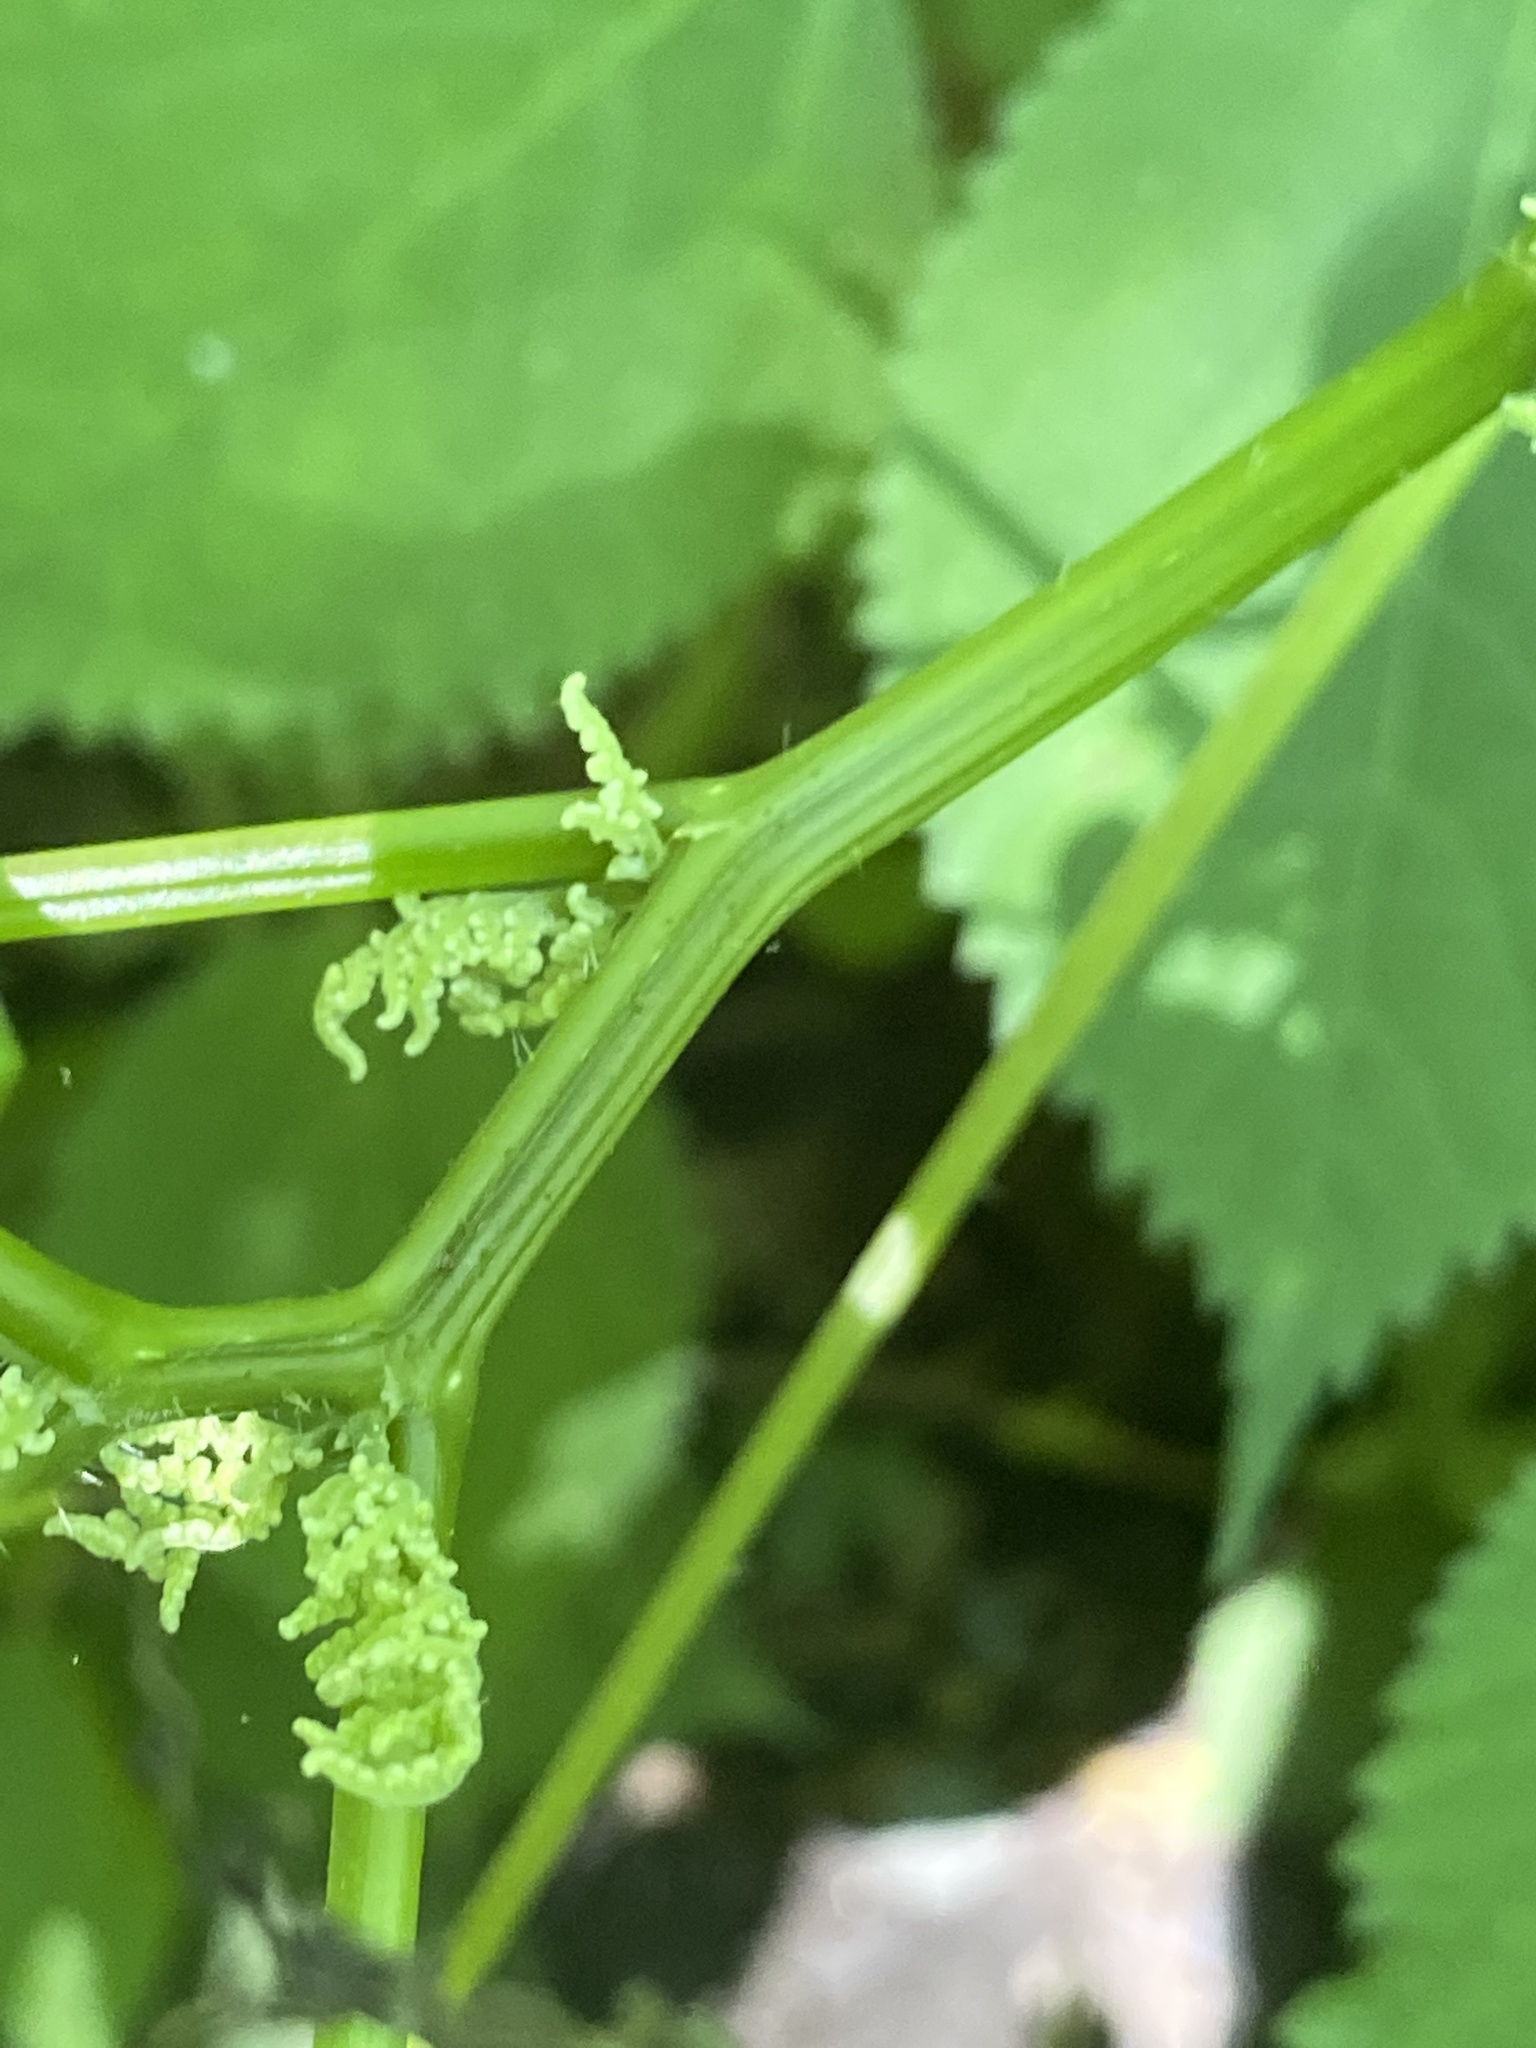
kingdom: Plantae
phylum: Tracheophyta
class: Magnoliopsida
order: Rosales
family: Urticaceae
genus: Laportea
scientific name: Laportea canadensis
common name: Canada nettle
